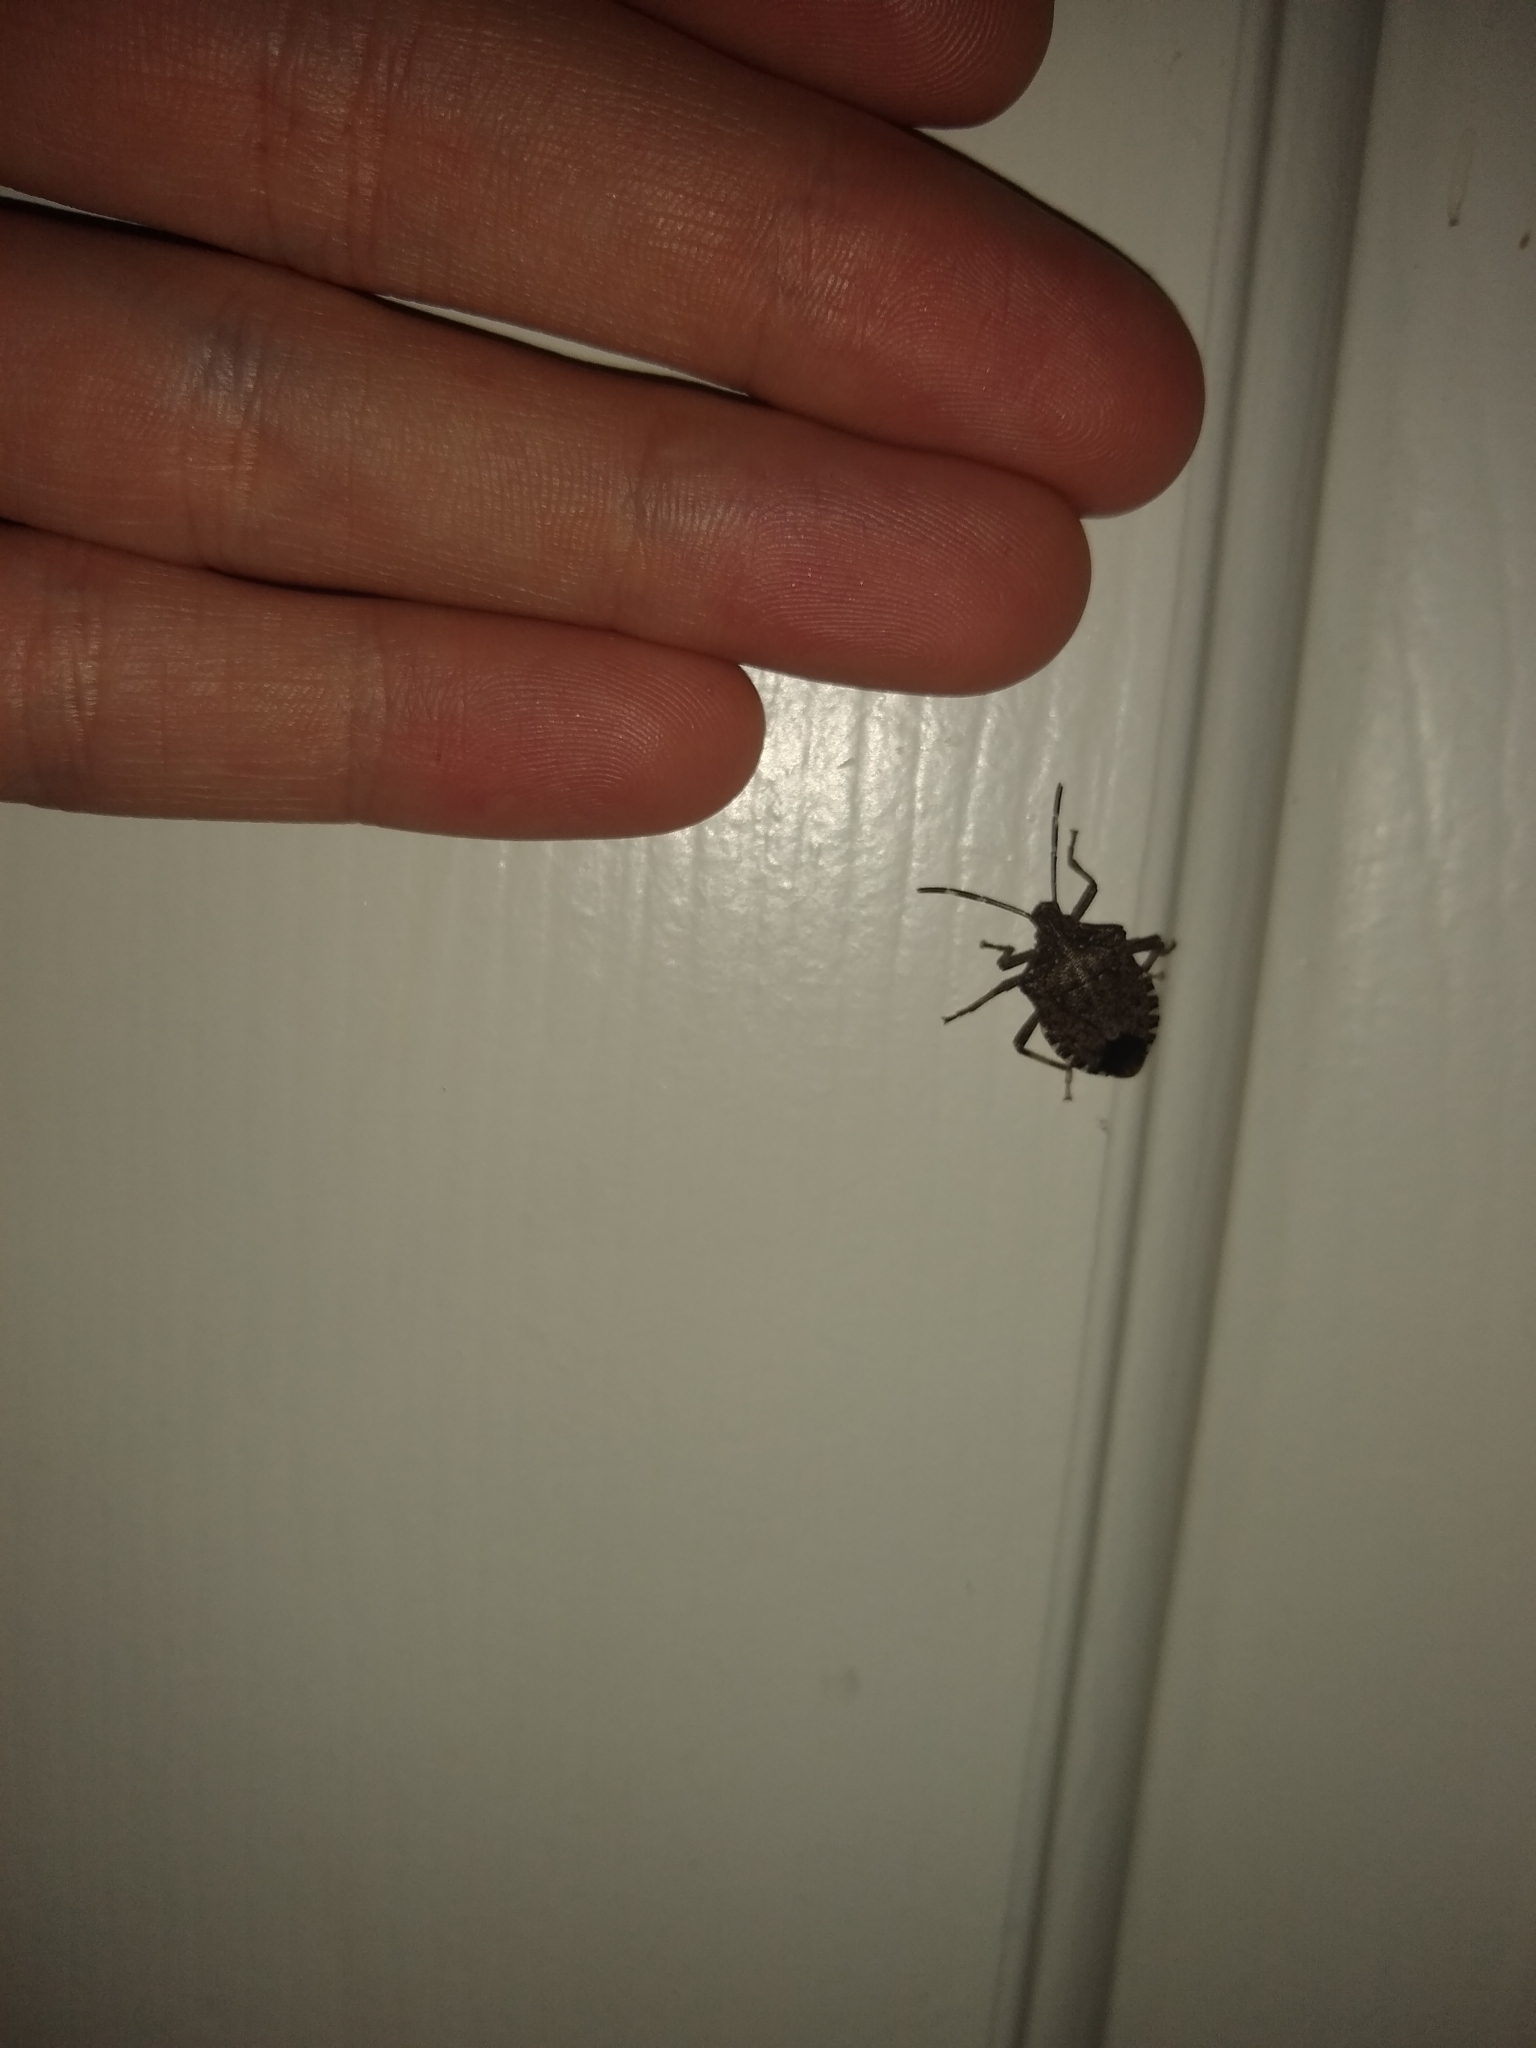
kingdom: Animalia
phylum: Arthropoda
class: Insecta
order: Hemiptera
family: Pentatomidae
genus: Halyomorpha
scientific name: Halyomorpha halys
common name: Brown marmorated stink bug
